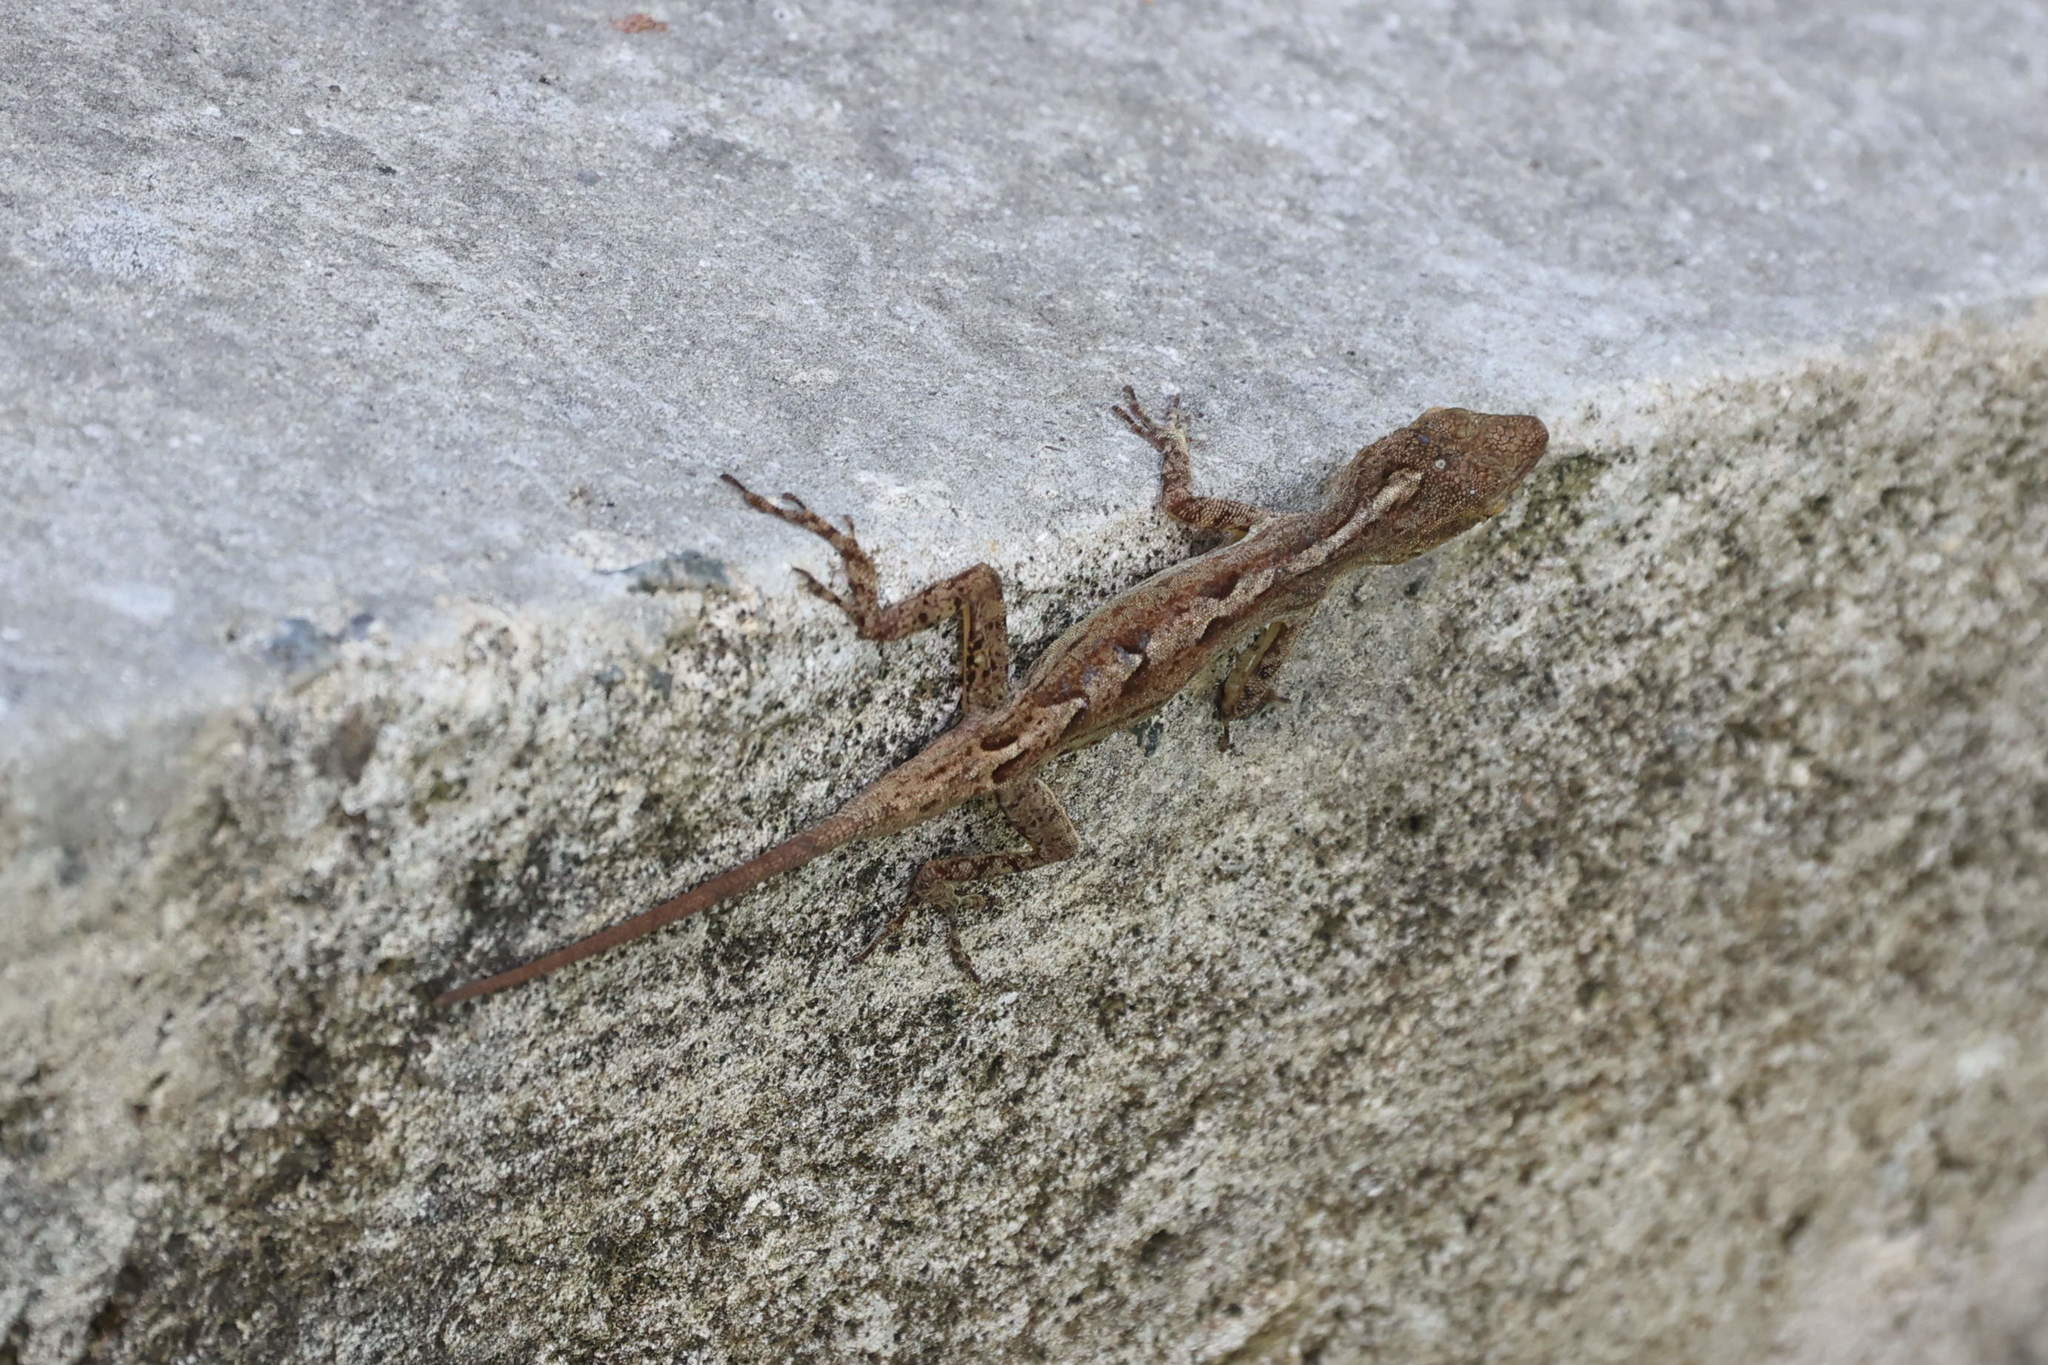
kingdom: Animalia
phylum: Chordata
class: Squamata
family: Dactyloidae
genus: Anolis
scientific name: Anolis marmoratus
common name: Guadeloupe anole
